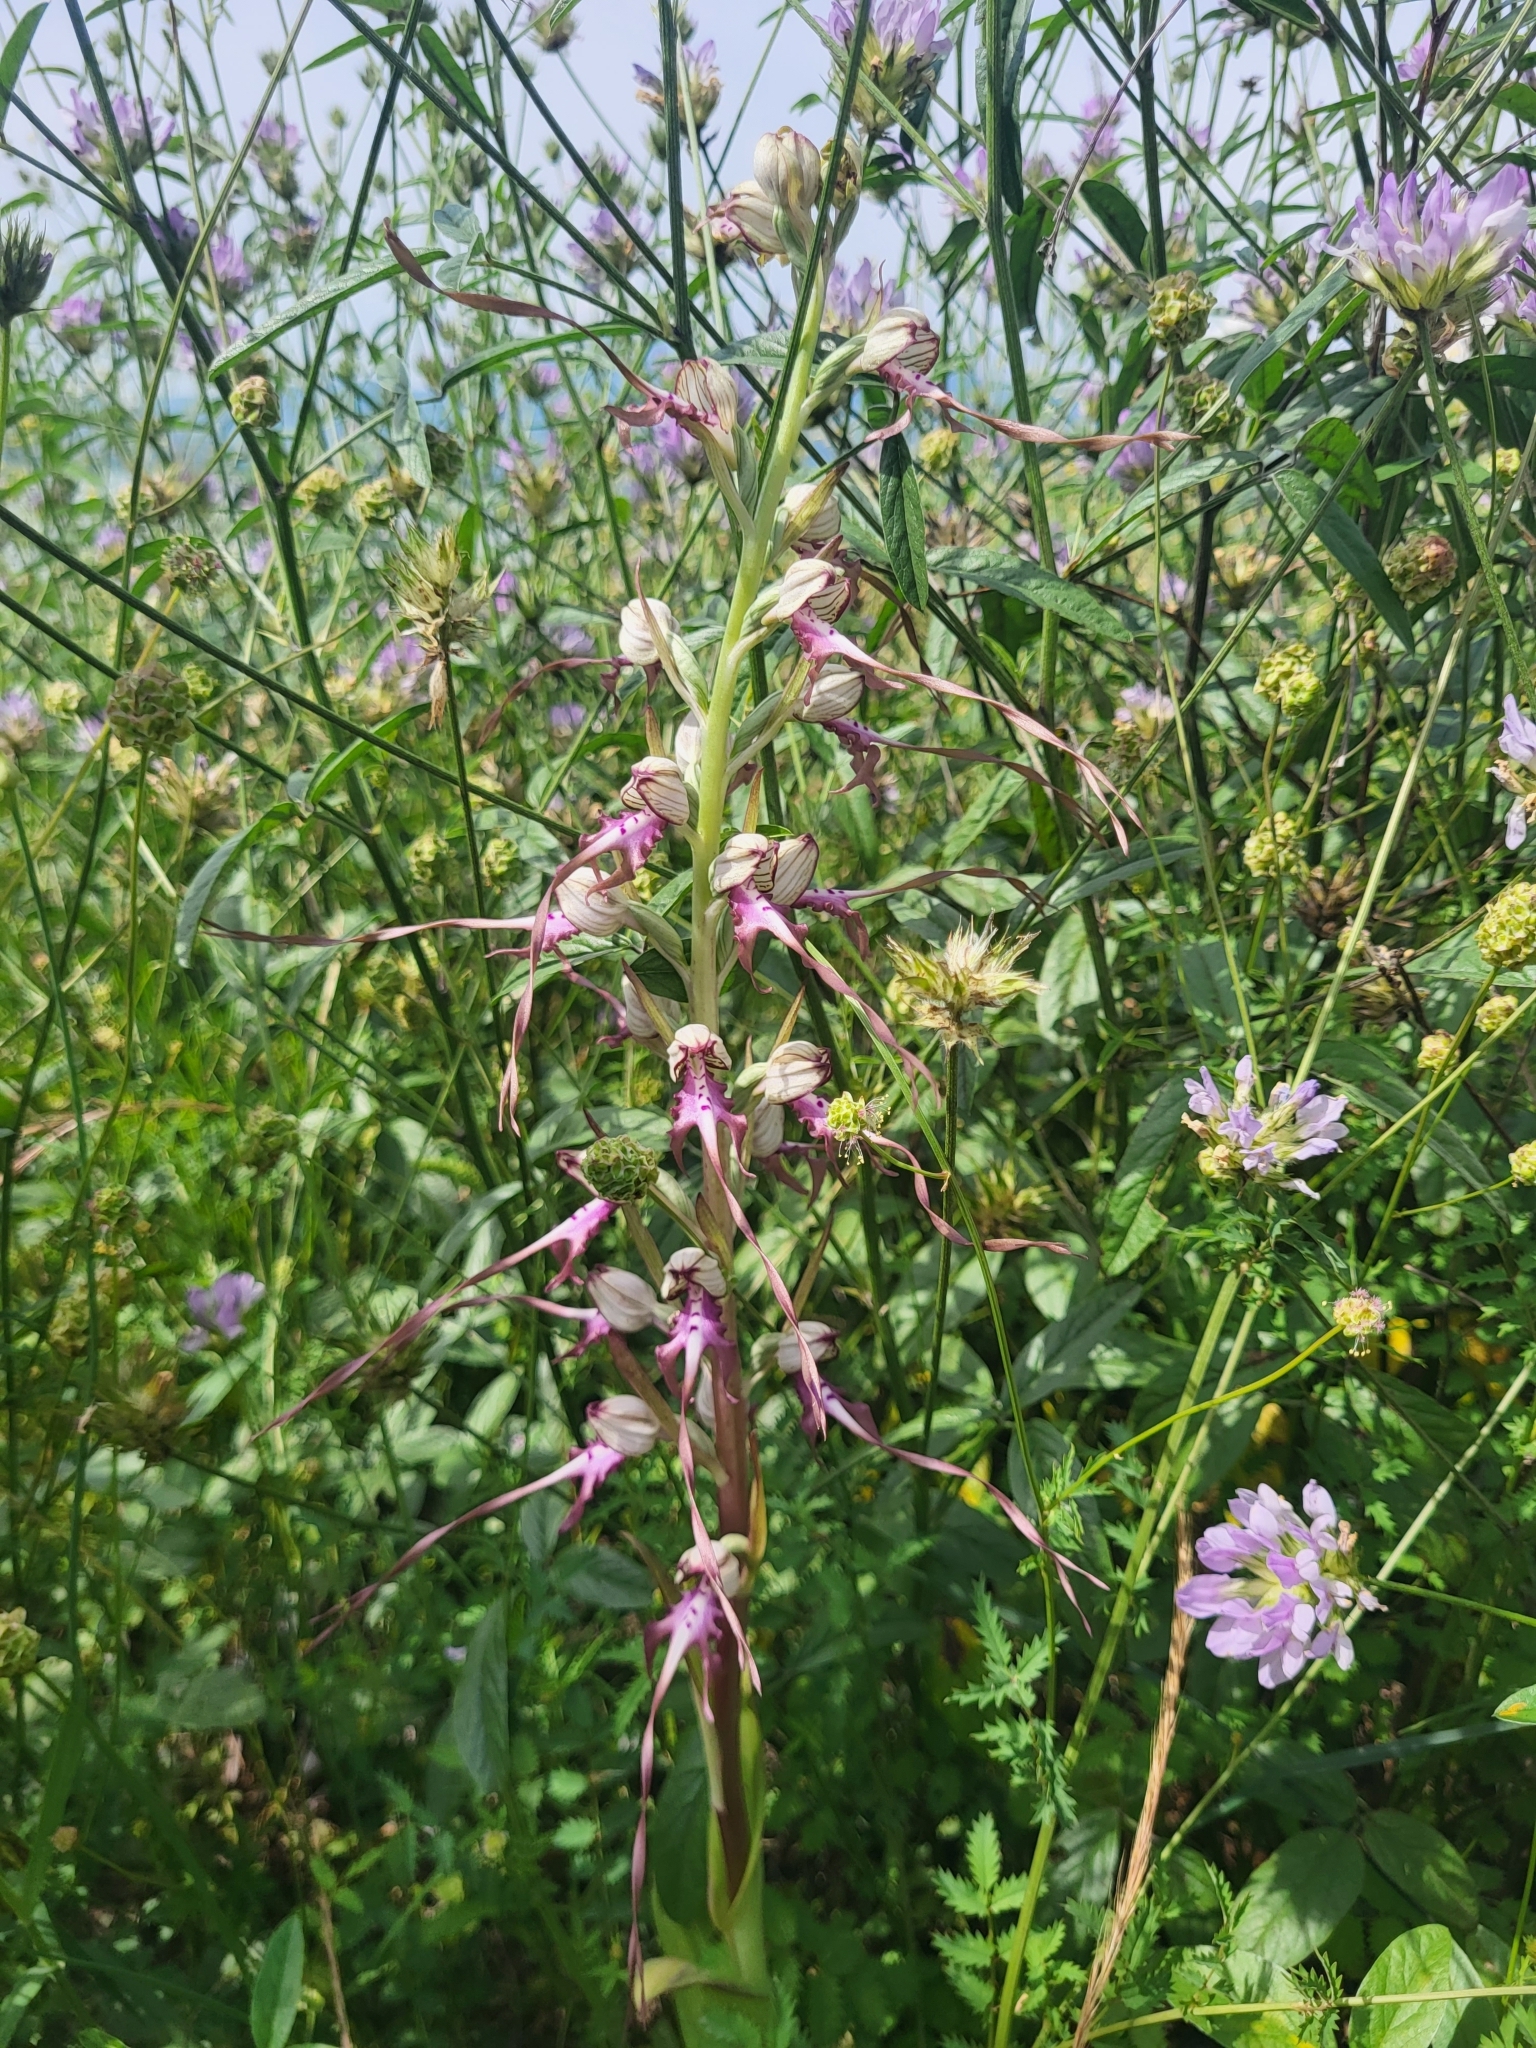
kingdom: Plantae
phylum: Tracheophyta
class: Liliopsida
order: Asparagales
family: Orchidaceae
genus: Himantoglossum
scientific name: Himantoglossum calcaratum
